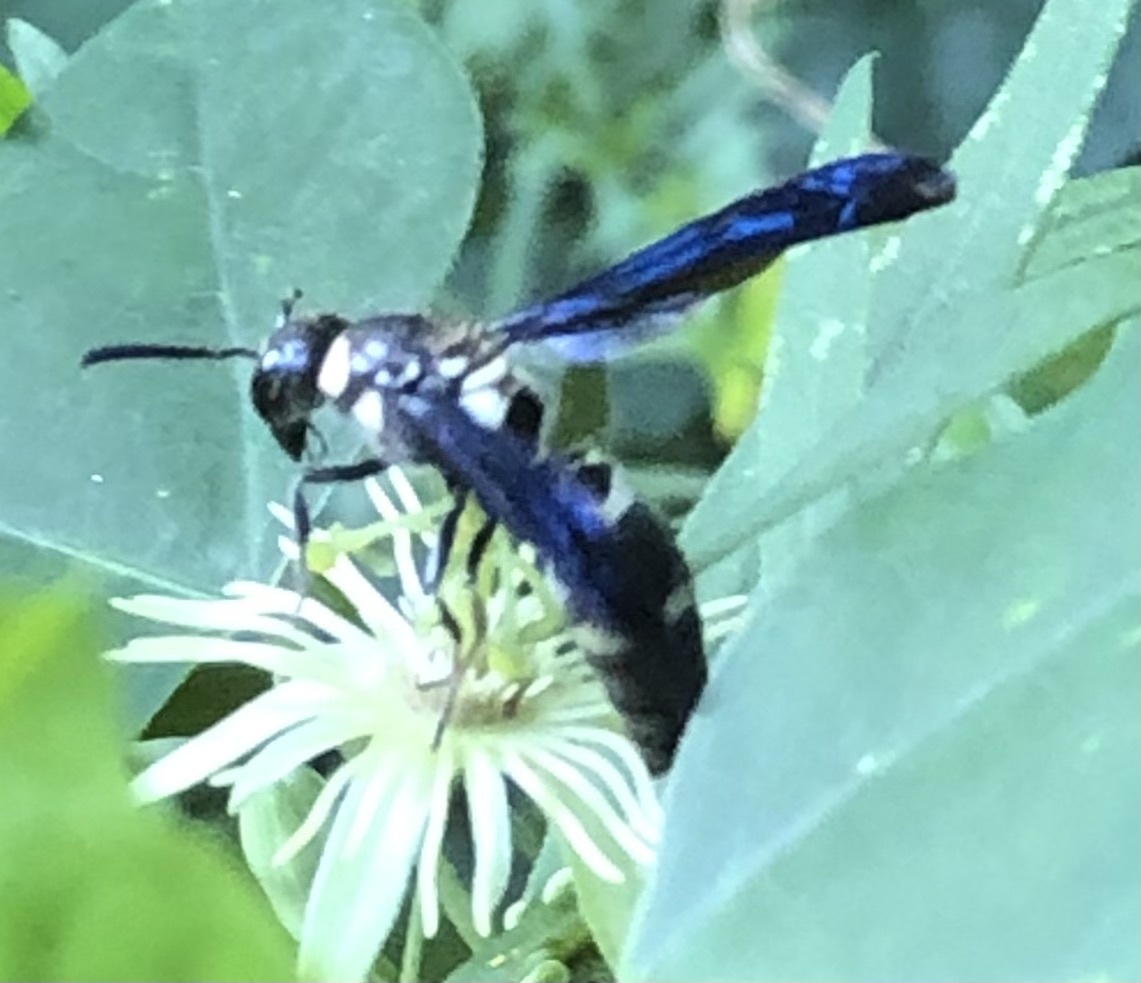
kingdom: Animalia
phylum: Arthropoda
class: Insecta
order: Hymenoptera
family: Eumenidae
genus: Pseudodynerus
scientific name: Pseudodynerus quadrisectus
